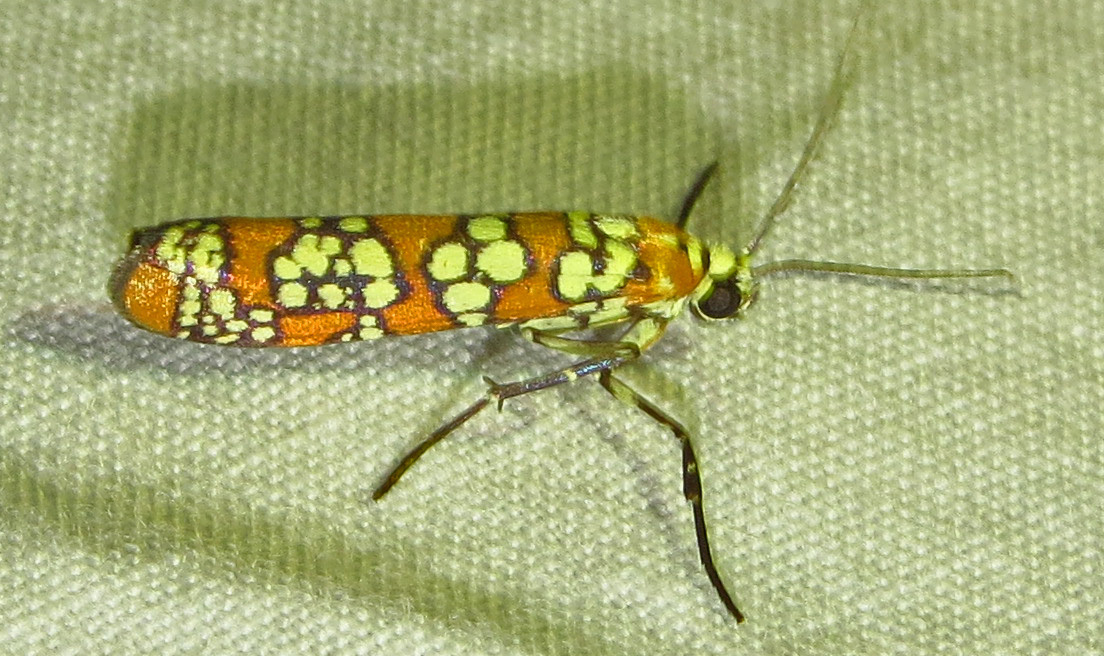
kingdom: Animalia
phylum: Arthropoda
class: Insecta
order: Lepidoptera
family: Attevidae
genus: Atteva
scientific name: Atteva punctella
